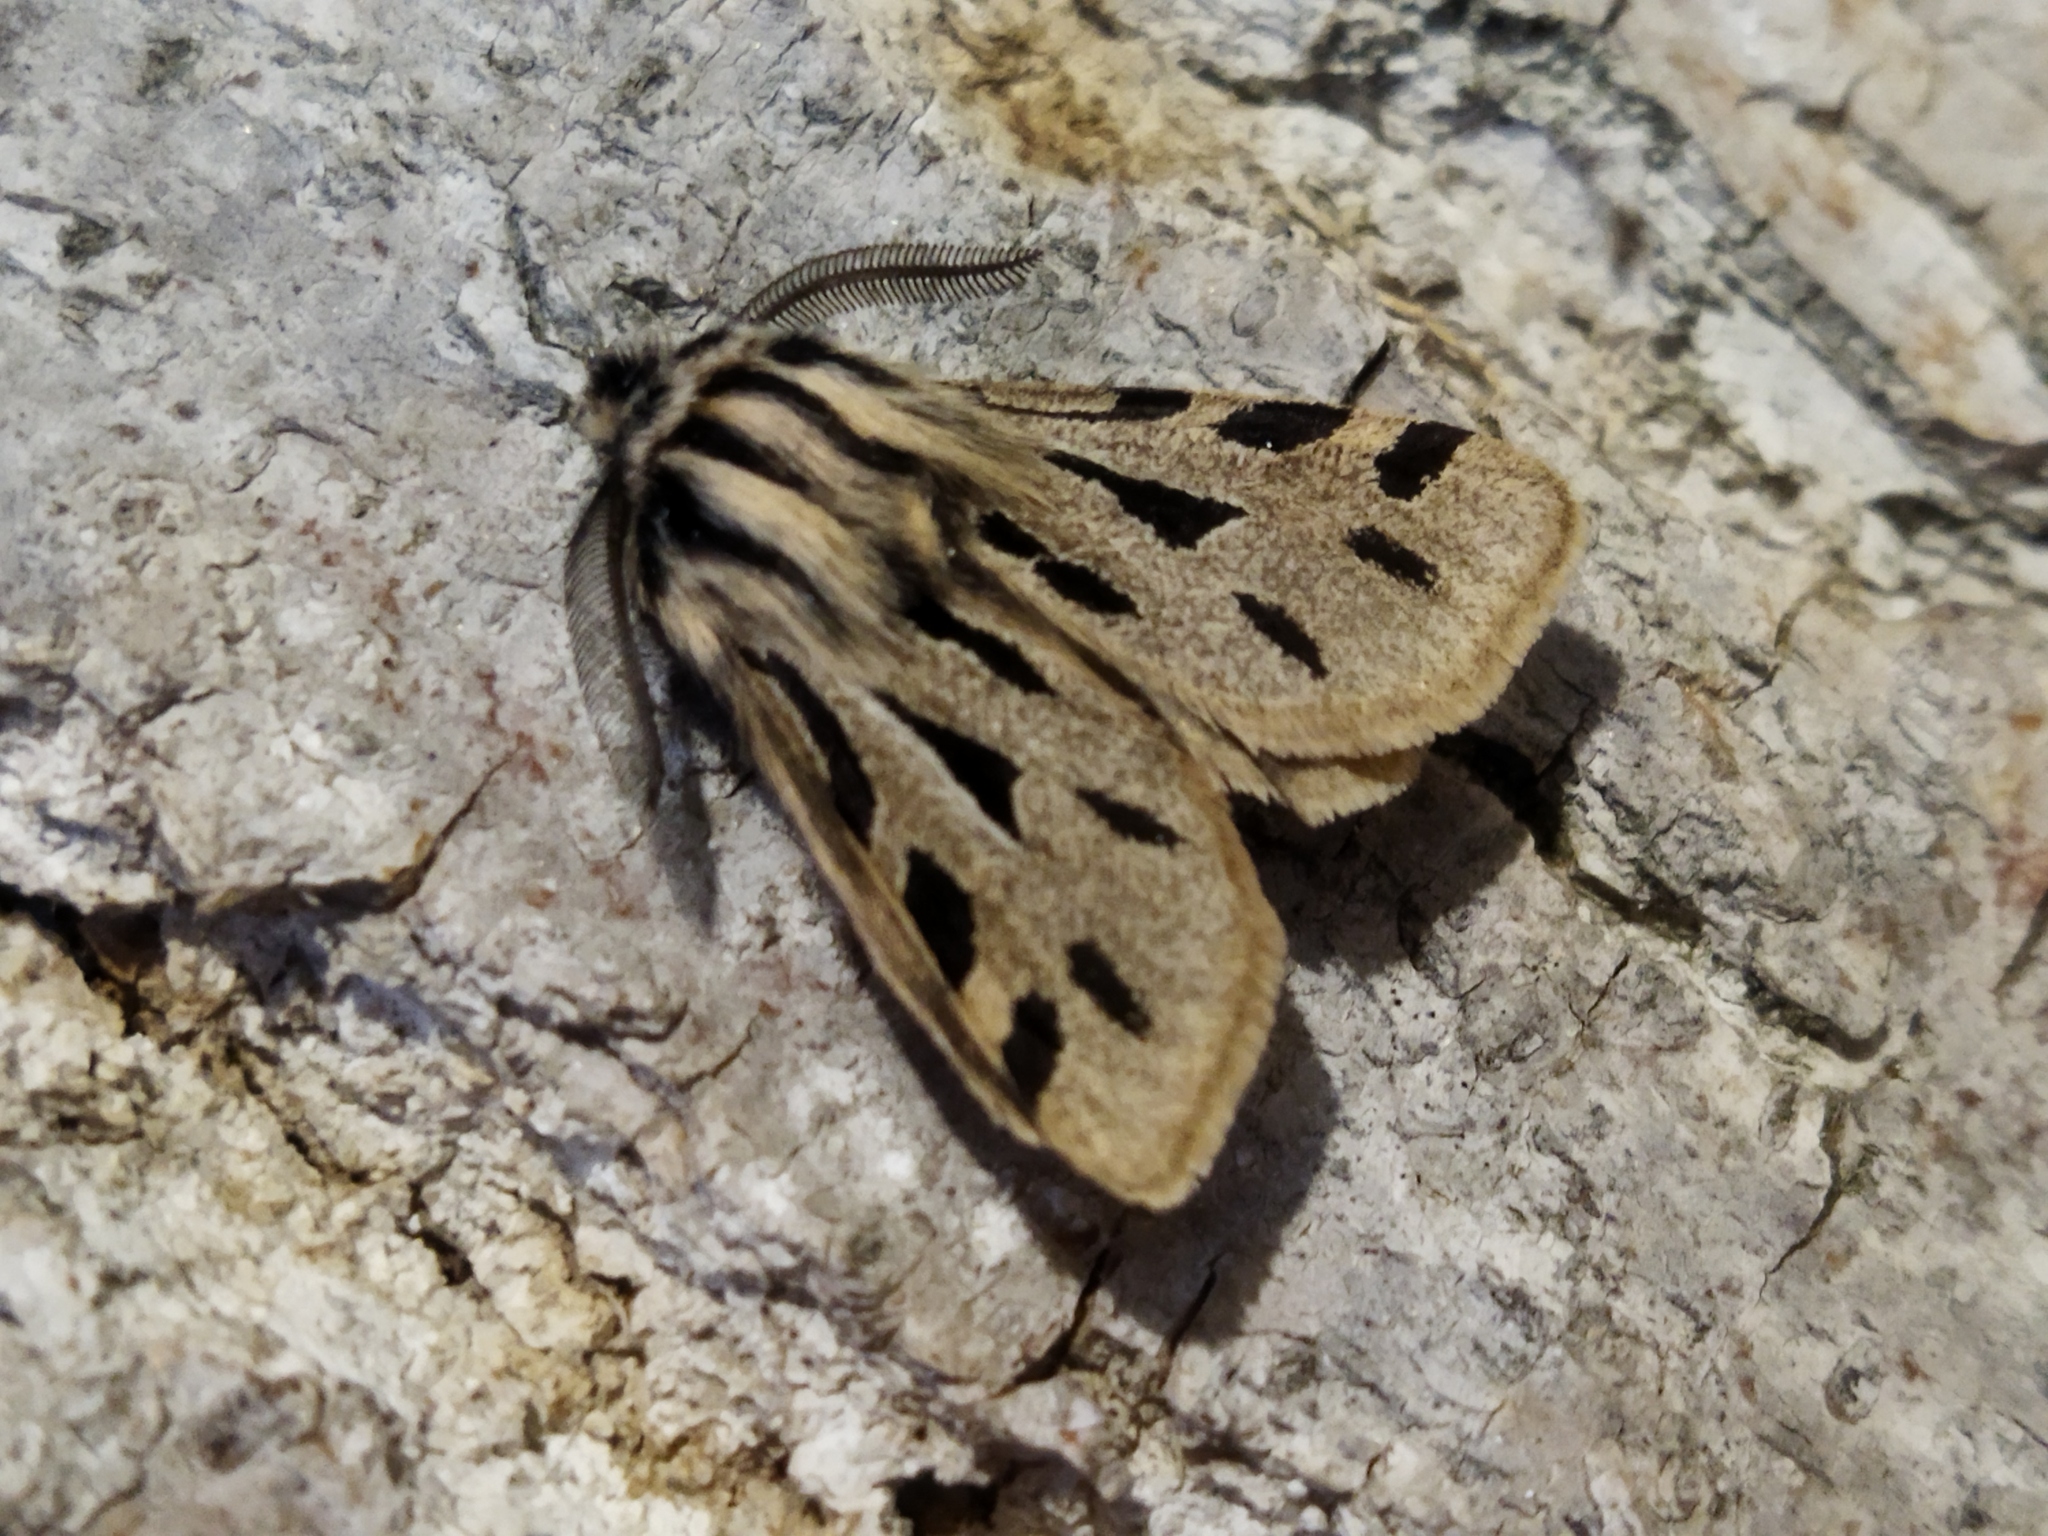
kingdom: Animalia
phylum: Arthropoda
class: Insecta
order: Lepidoptera
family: Erebidae
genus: Ocnogyna
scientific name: Ocnogyna parasita
